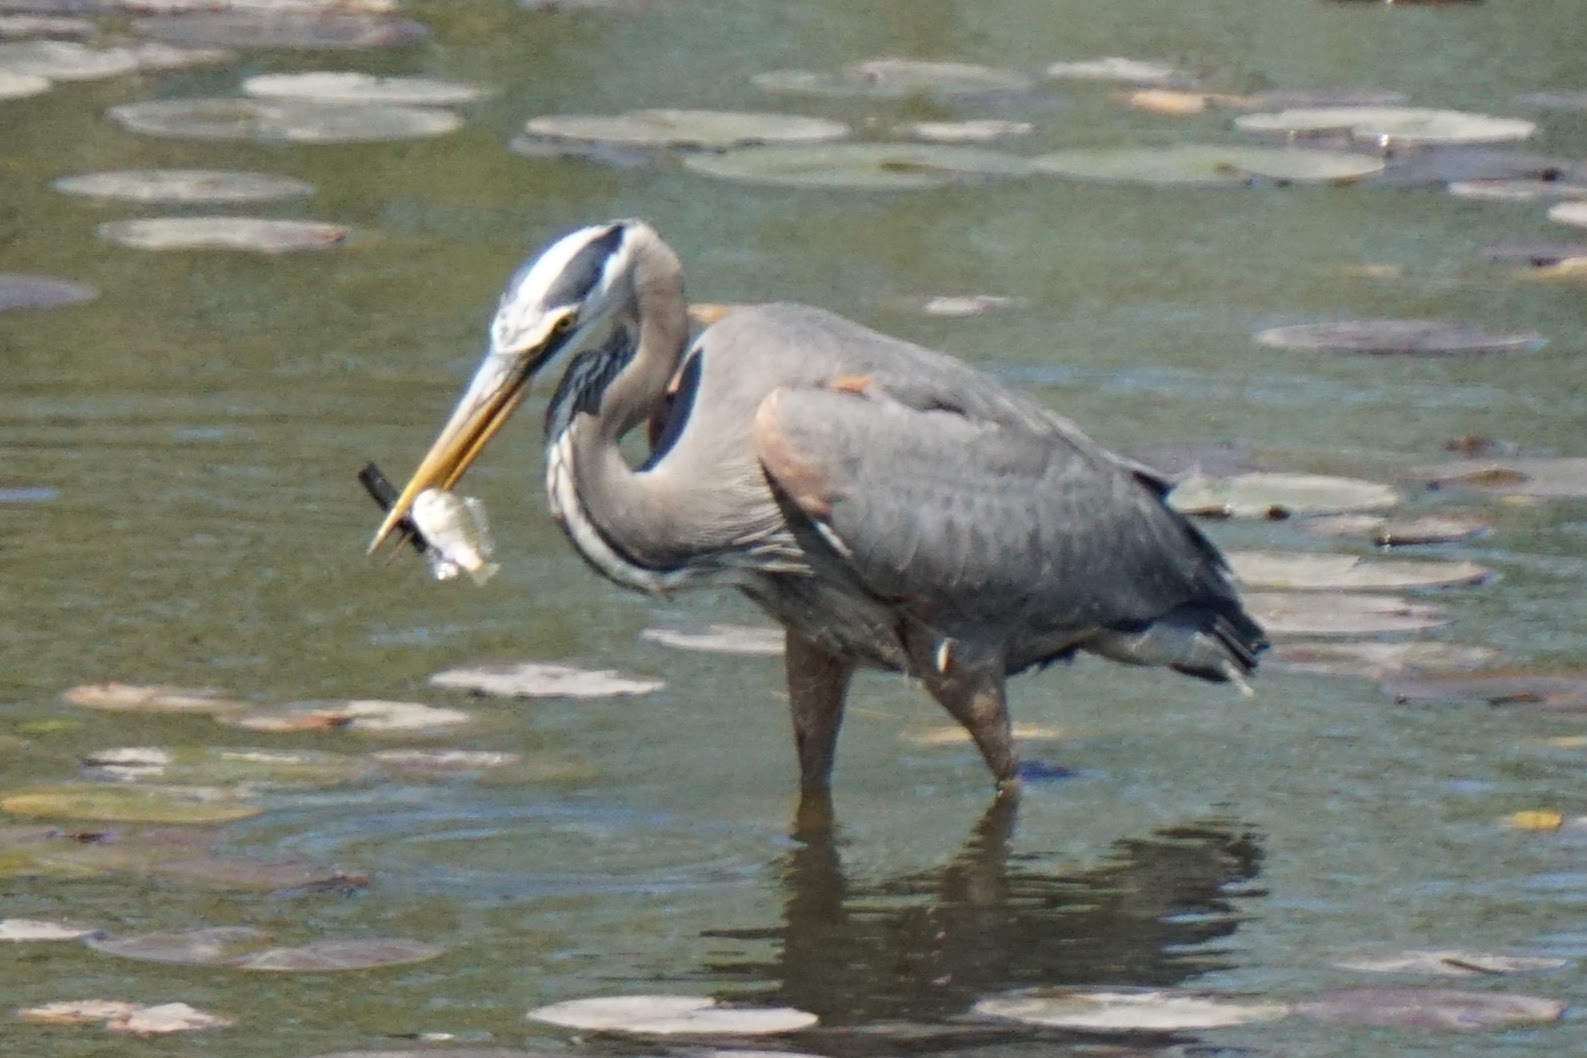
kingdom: Animalia
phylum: Chordata
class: Aves
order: Pelecaniformes
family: Ardeidae
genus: Ardea
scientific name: Ardea herodias
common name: Great blue heron
